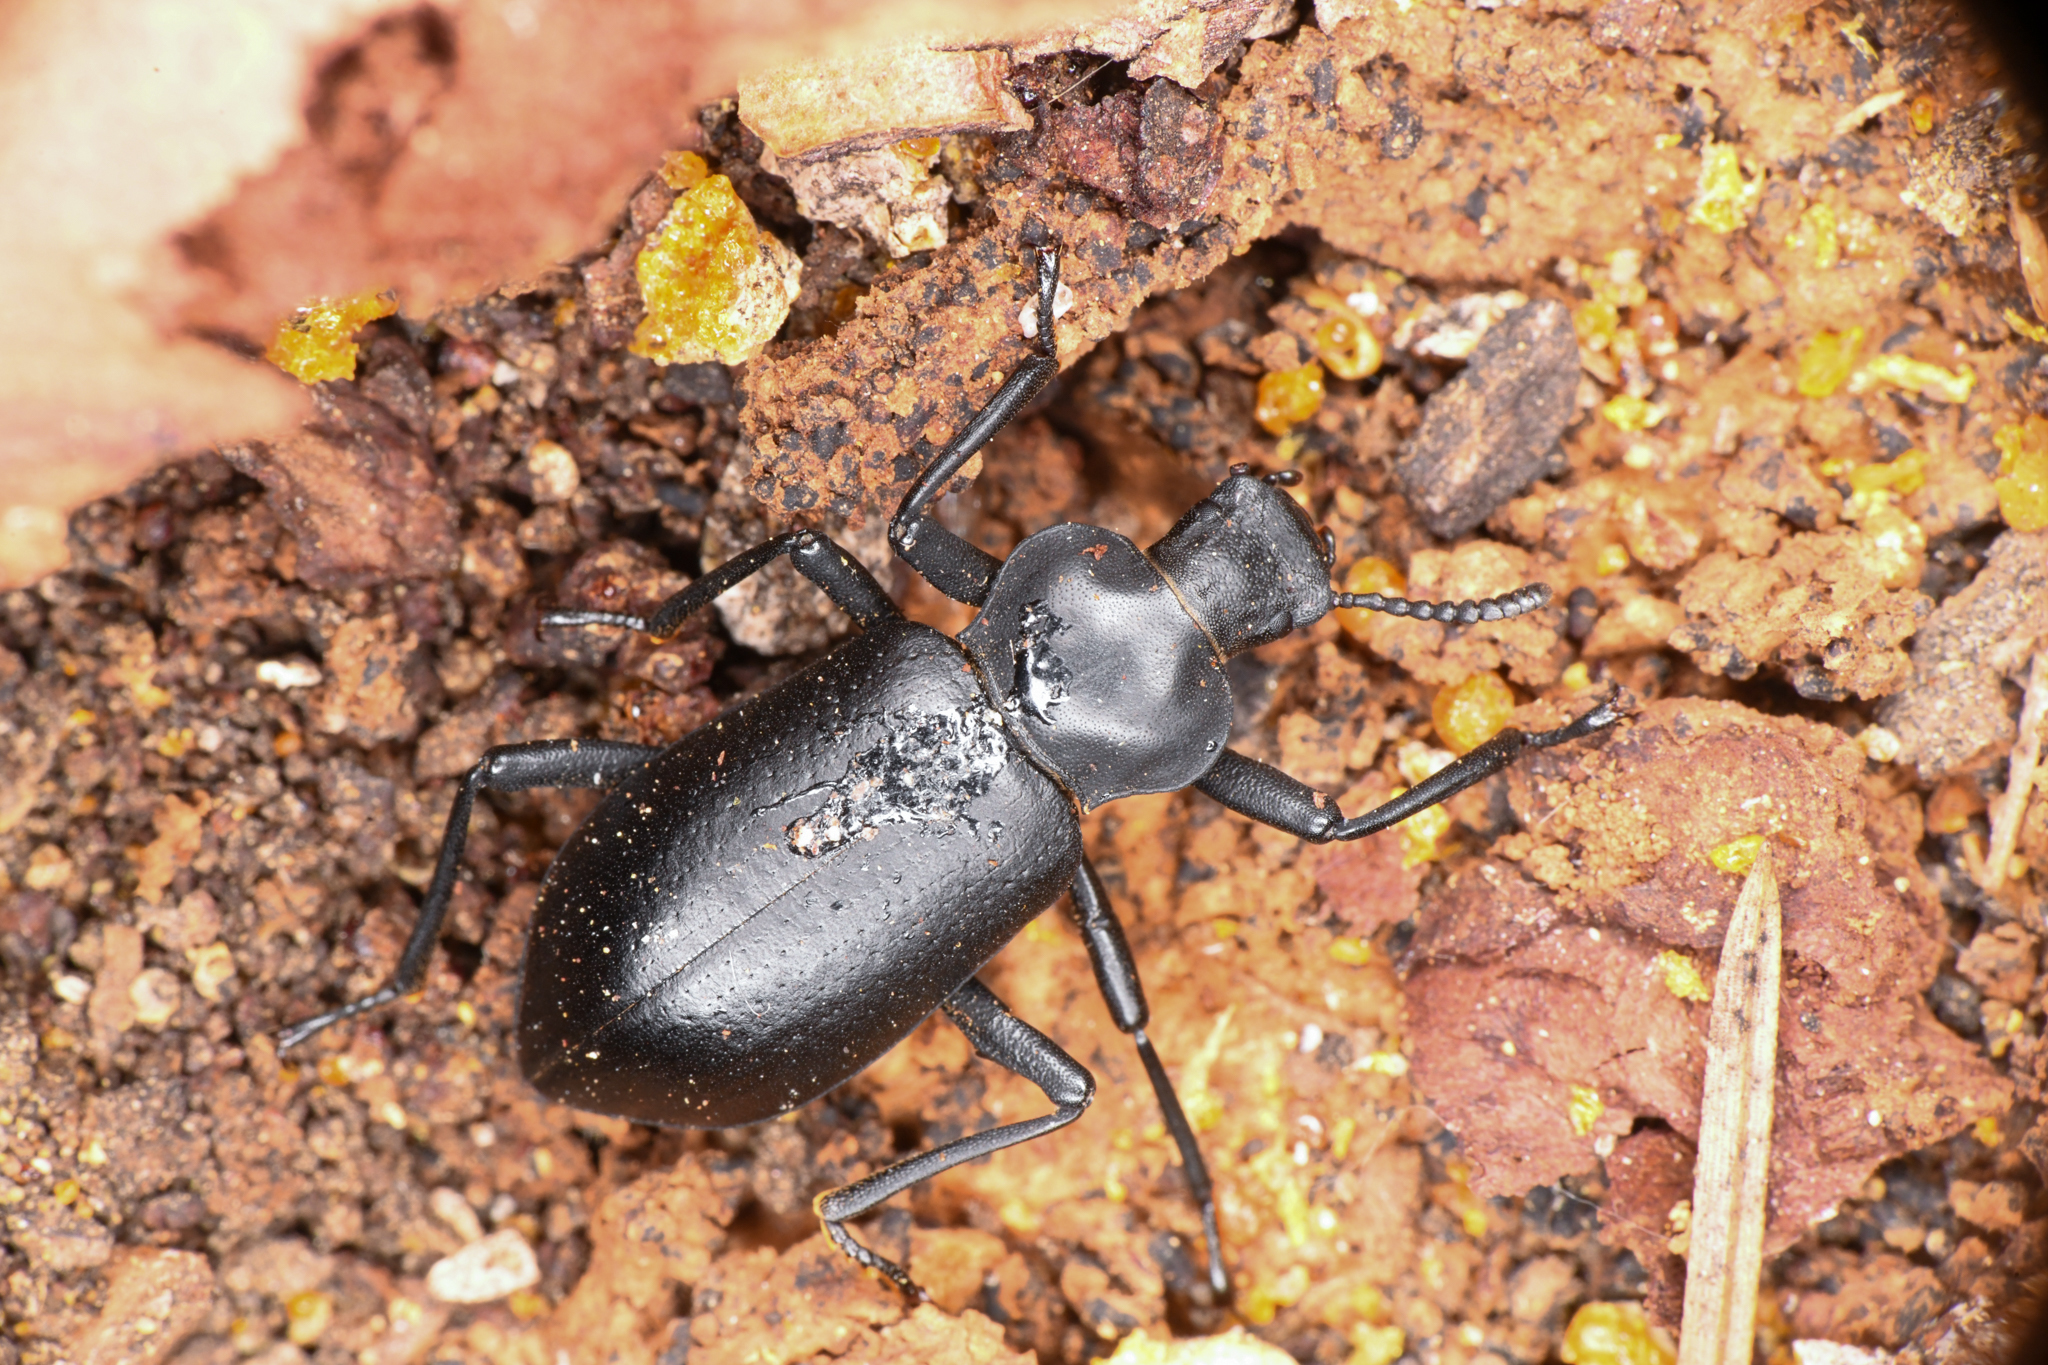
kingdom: Animalia
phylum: Arthropoda
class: Insecta
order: Coleoptera
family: Tenebrionidae
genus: Iphthiminus
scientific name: Iphthiminus lewisii
